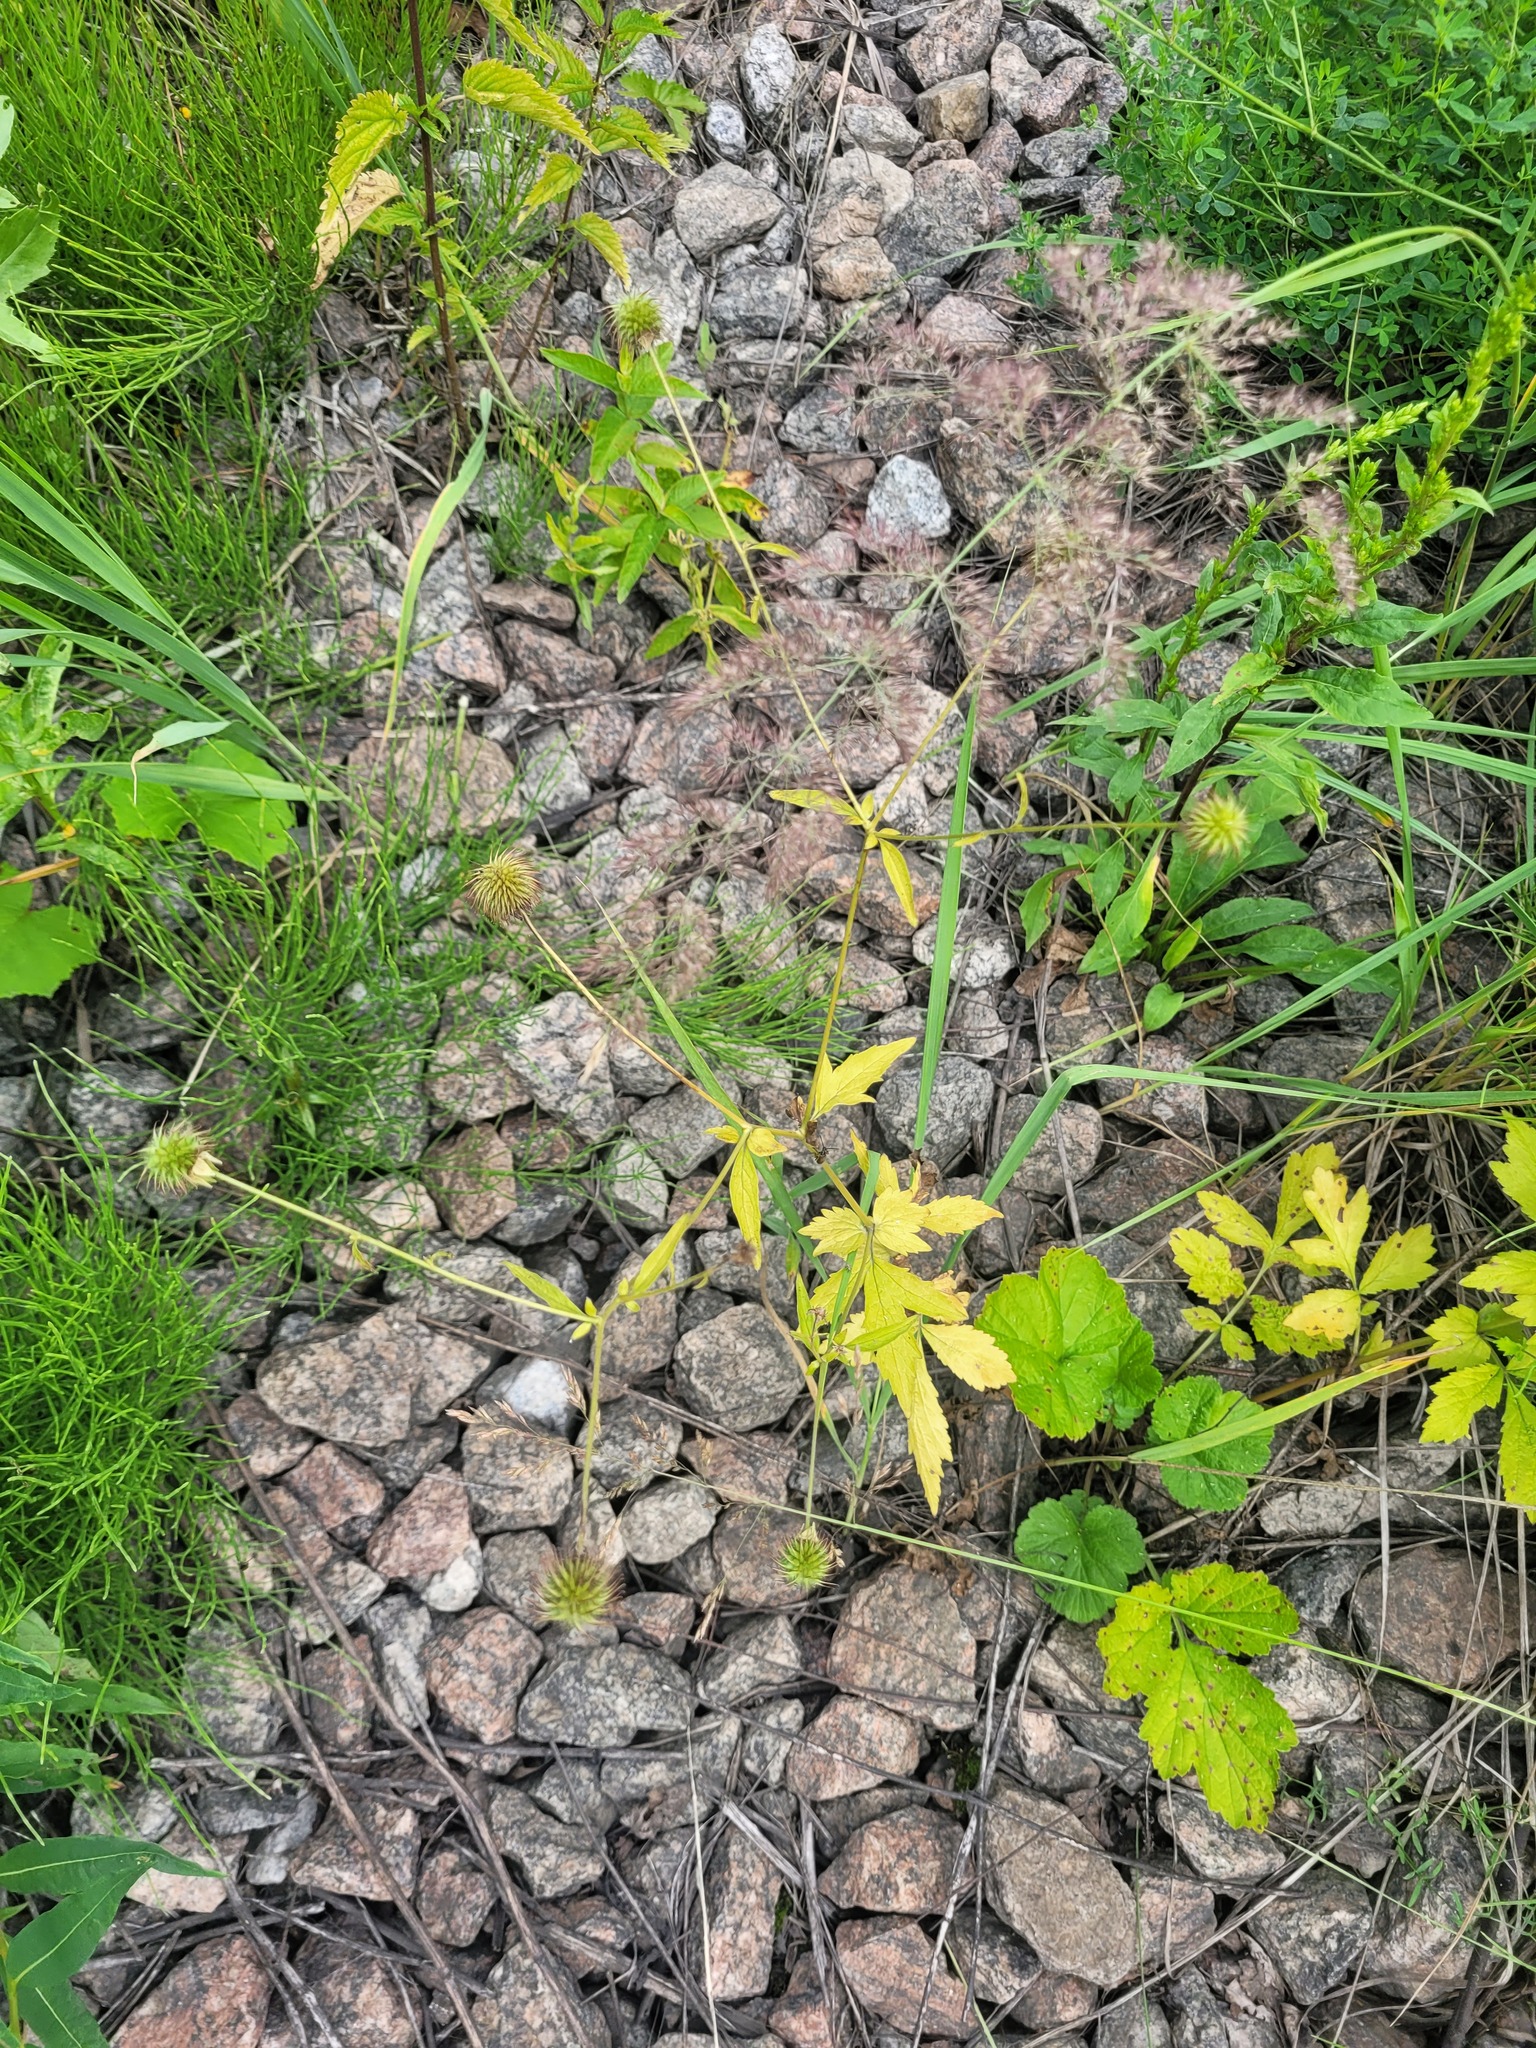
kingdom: Plantae
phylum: Tracheophyta
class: Magnoliopsida
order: Rosales
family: Rosaceae
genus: Geum
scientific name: Geum urbanum
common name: Wood avens
